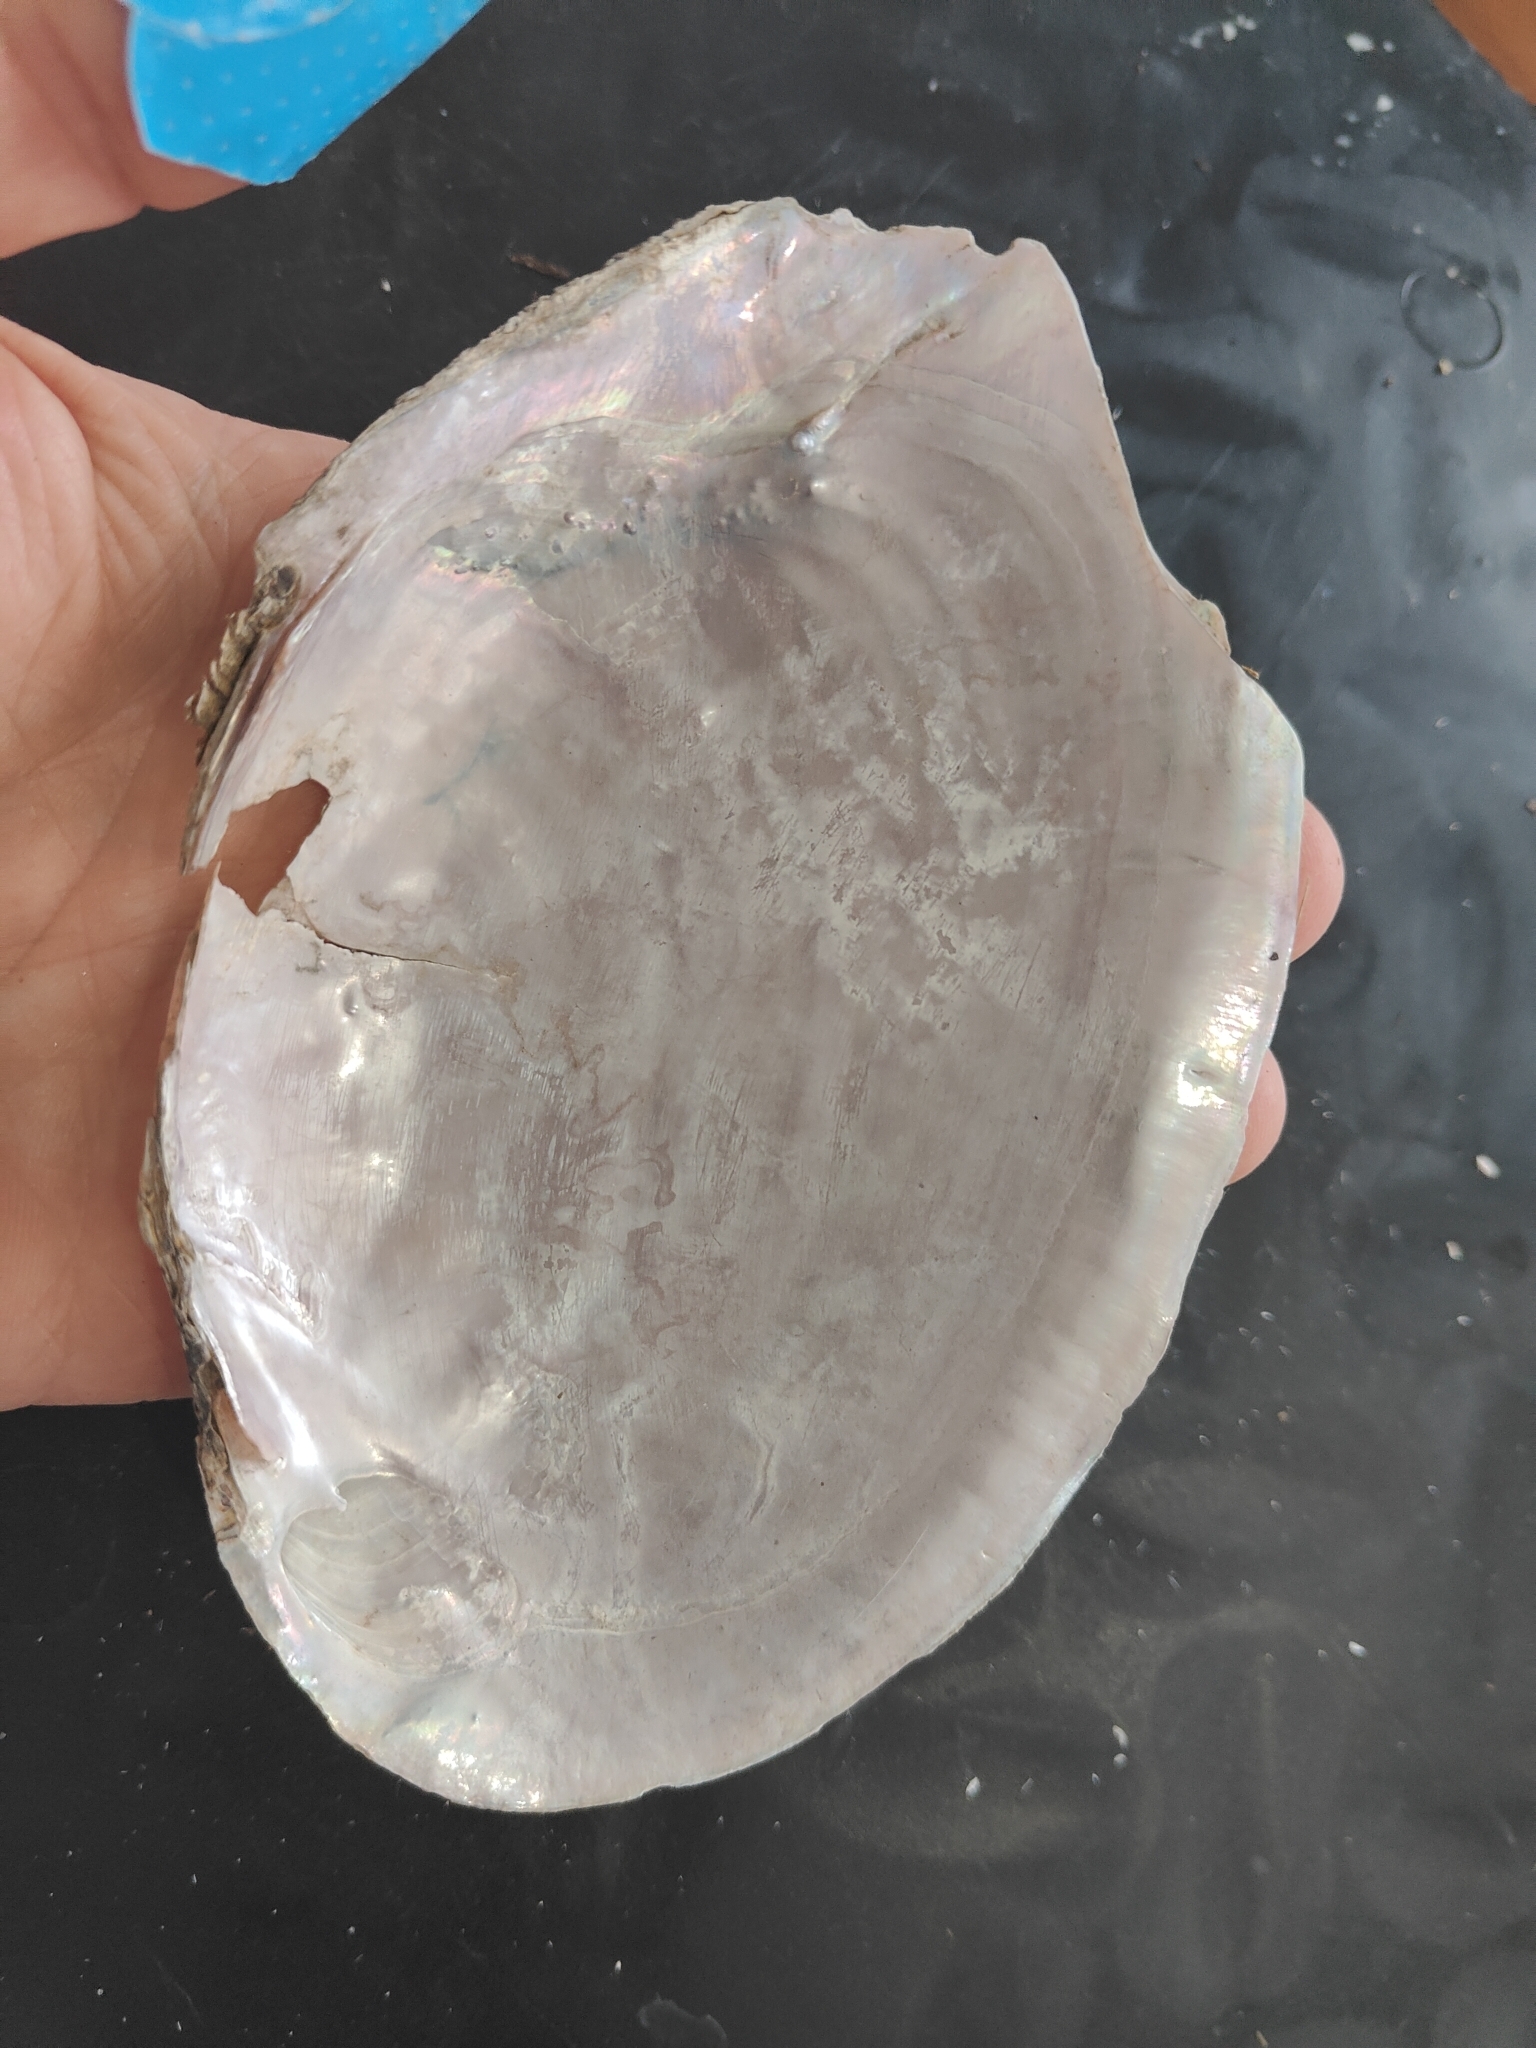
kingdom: Animalia
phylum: Mollusca
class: Bivalvia
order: Unionida
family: Unionidae
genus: Potamilus
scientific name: Potamilus ohiensis
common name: Pink papershell
